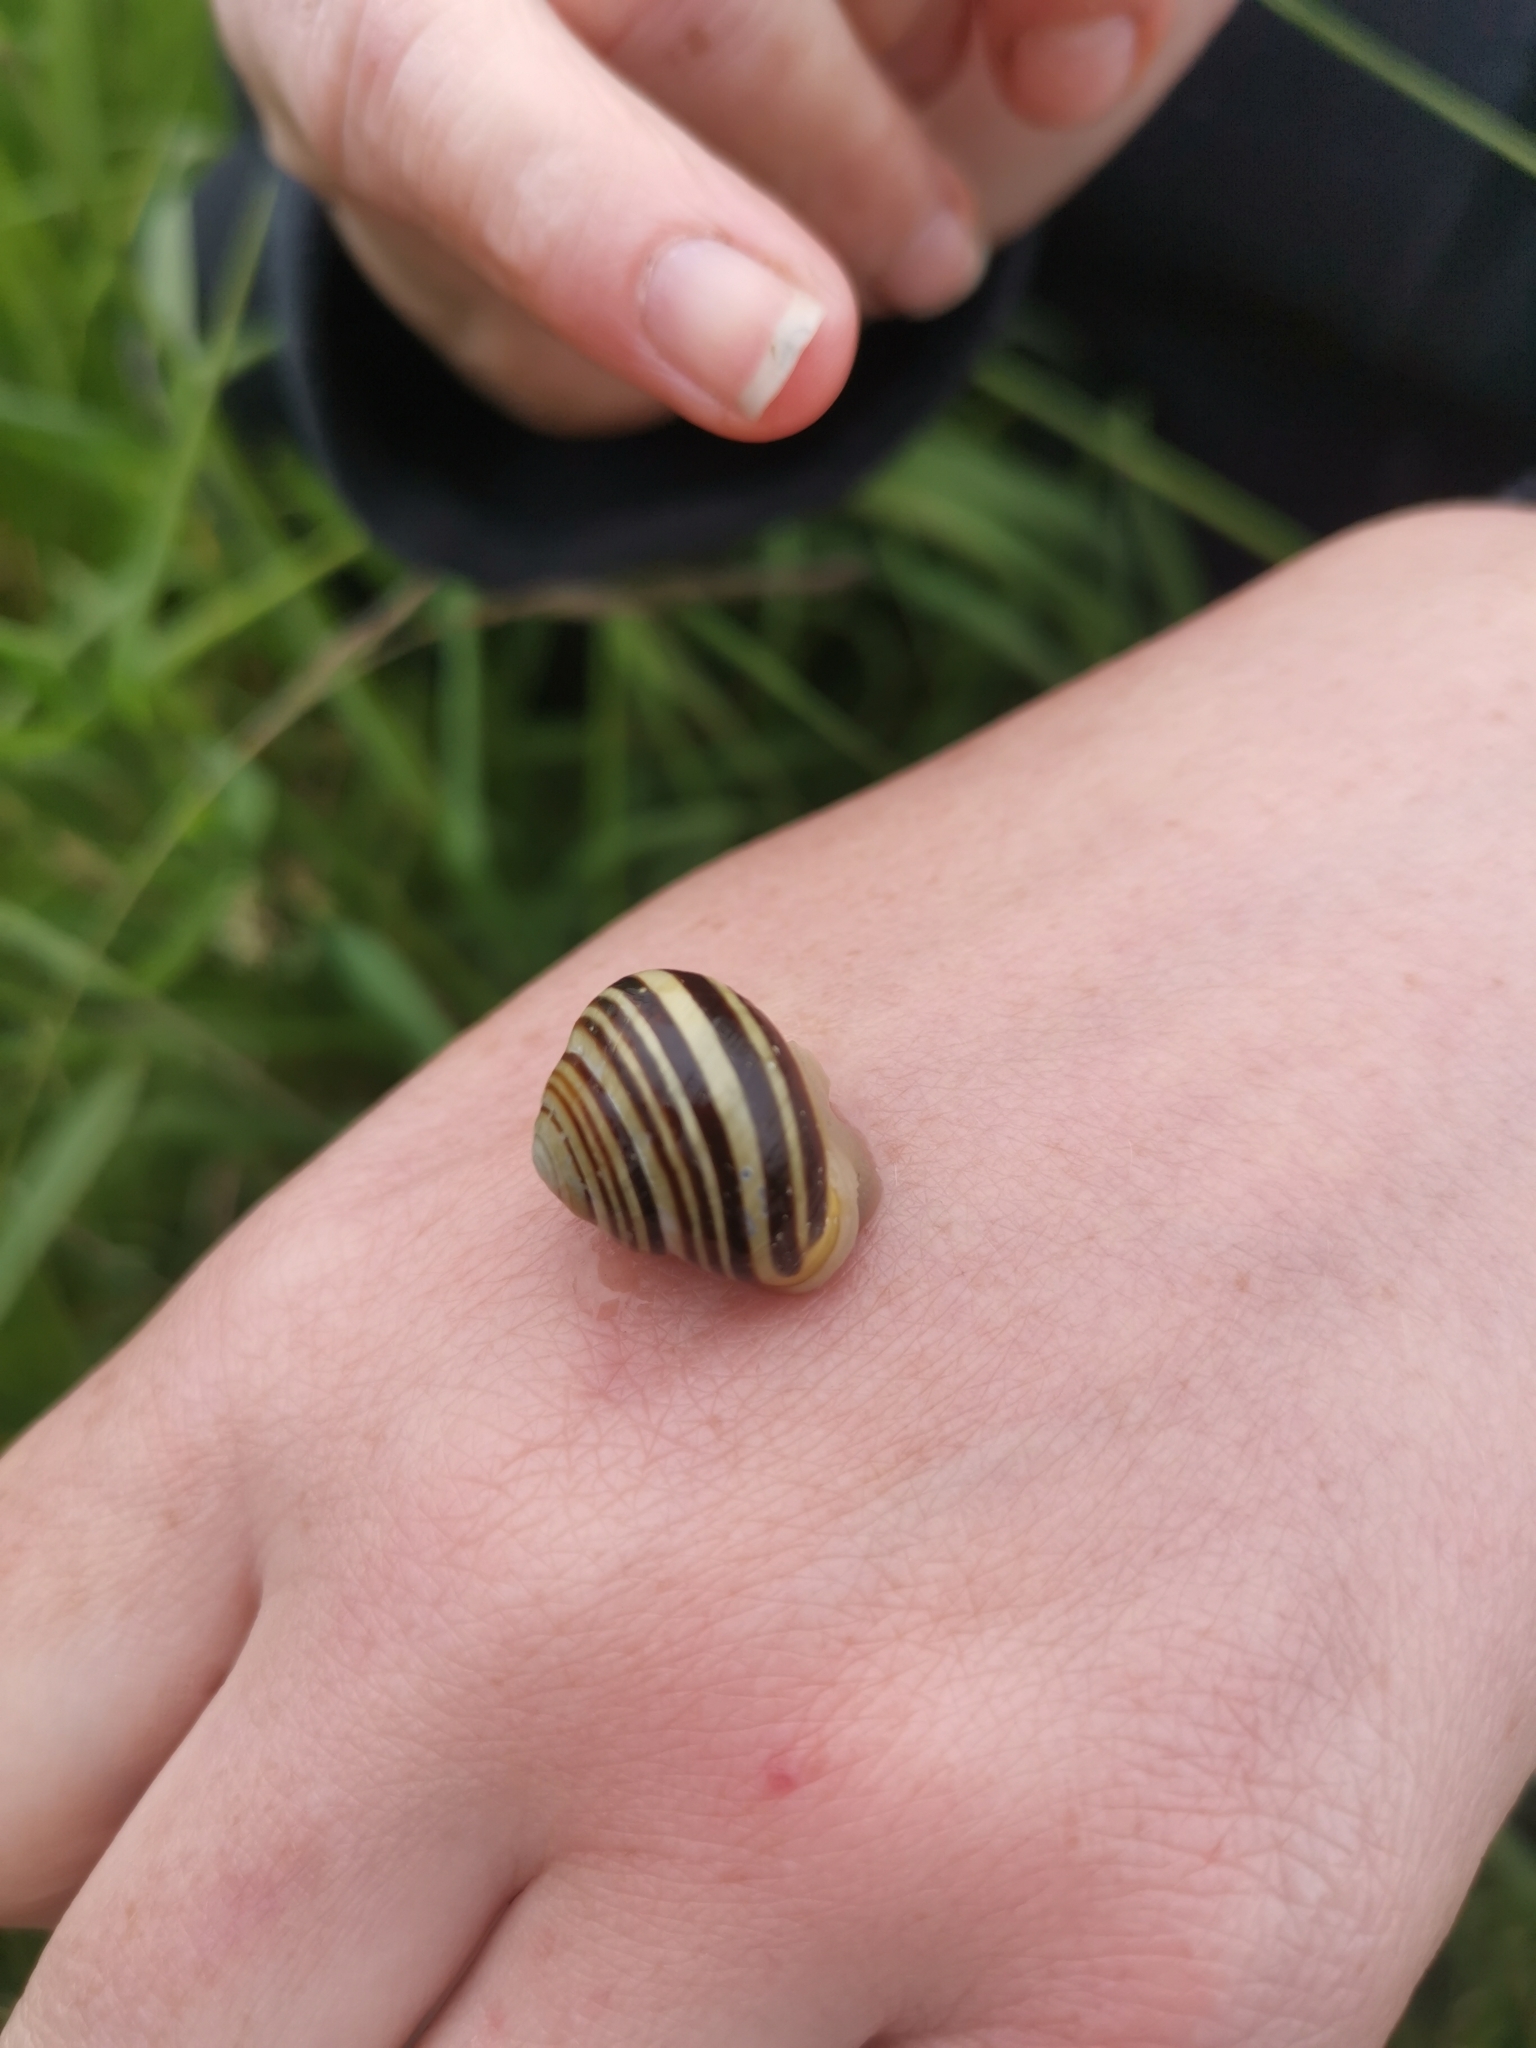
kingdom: Animalia
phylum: Mollusca
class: Gastropoda
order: Stylommatophora
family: Helicidae
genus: Cepaea
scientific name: Cepaea hortensis
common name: White-lip gardensnail
